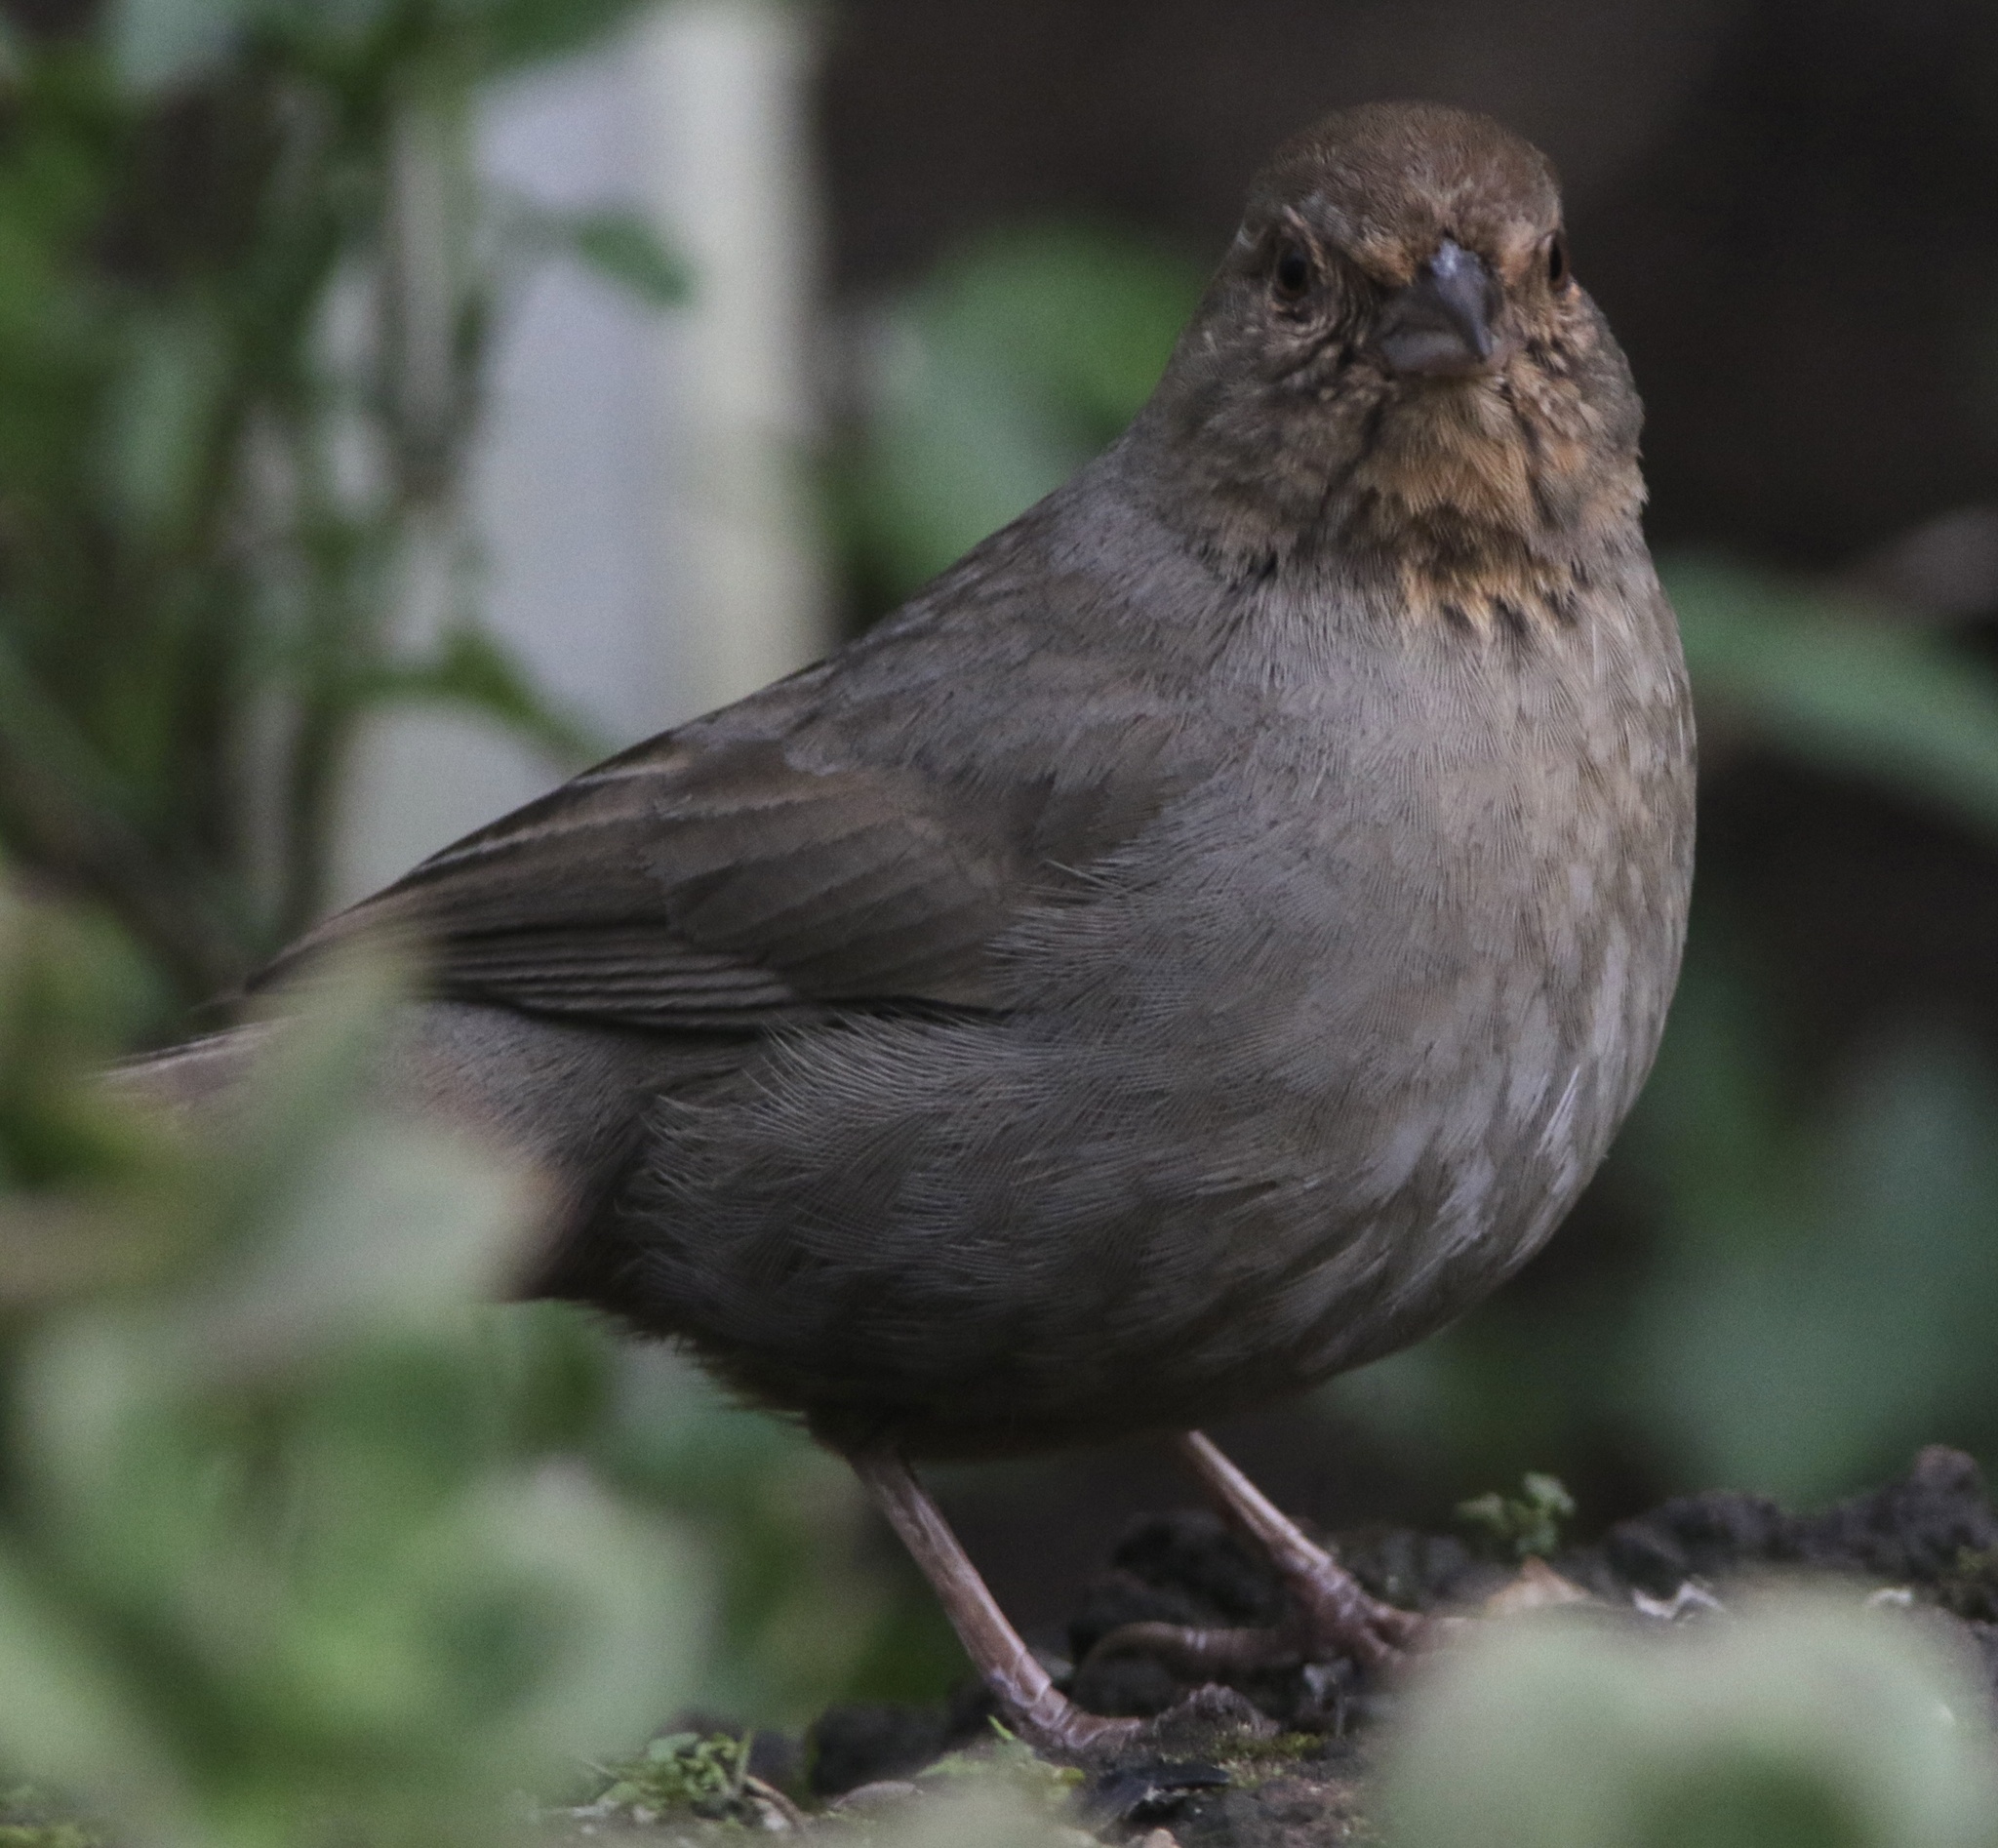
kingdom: Animalia
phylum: Chordata
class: Aves
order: Passeriformes
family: Passerellidae
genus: Melozone
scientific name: Melozone crissalis
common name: California towhee
